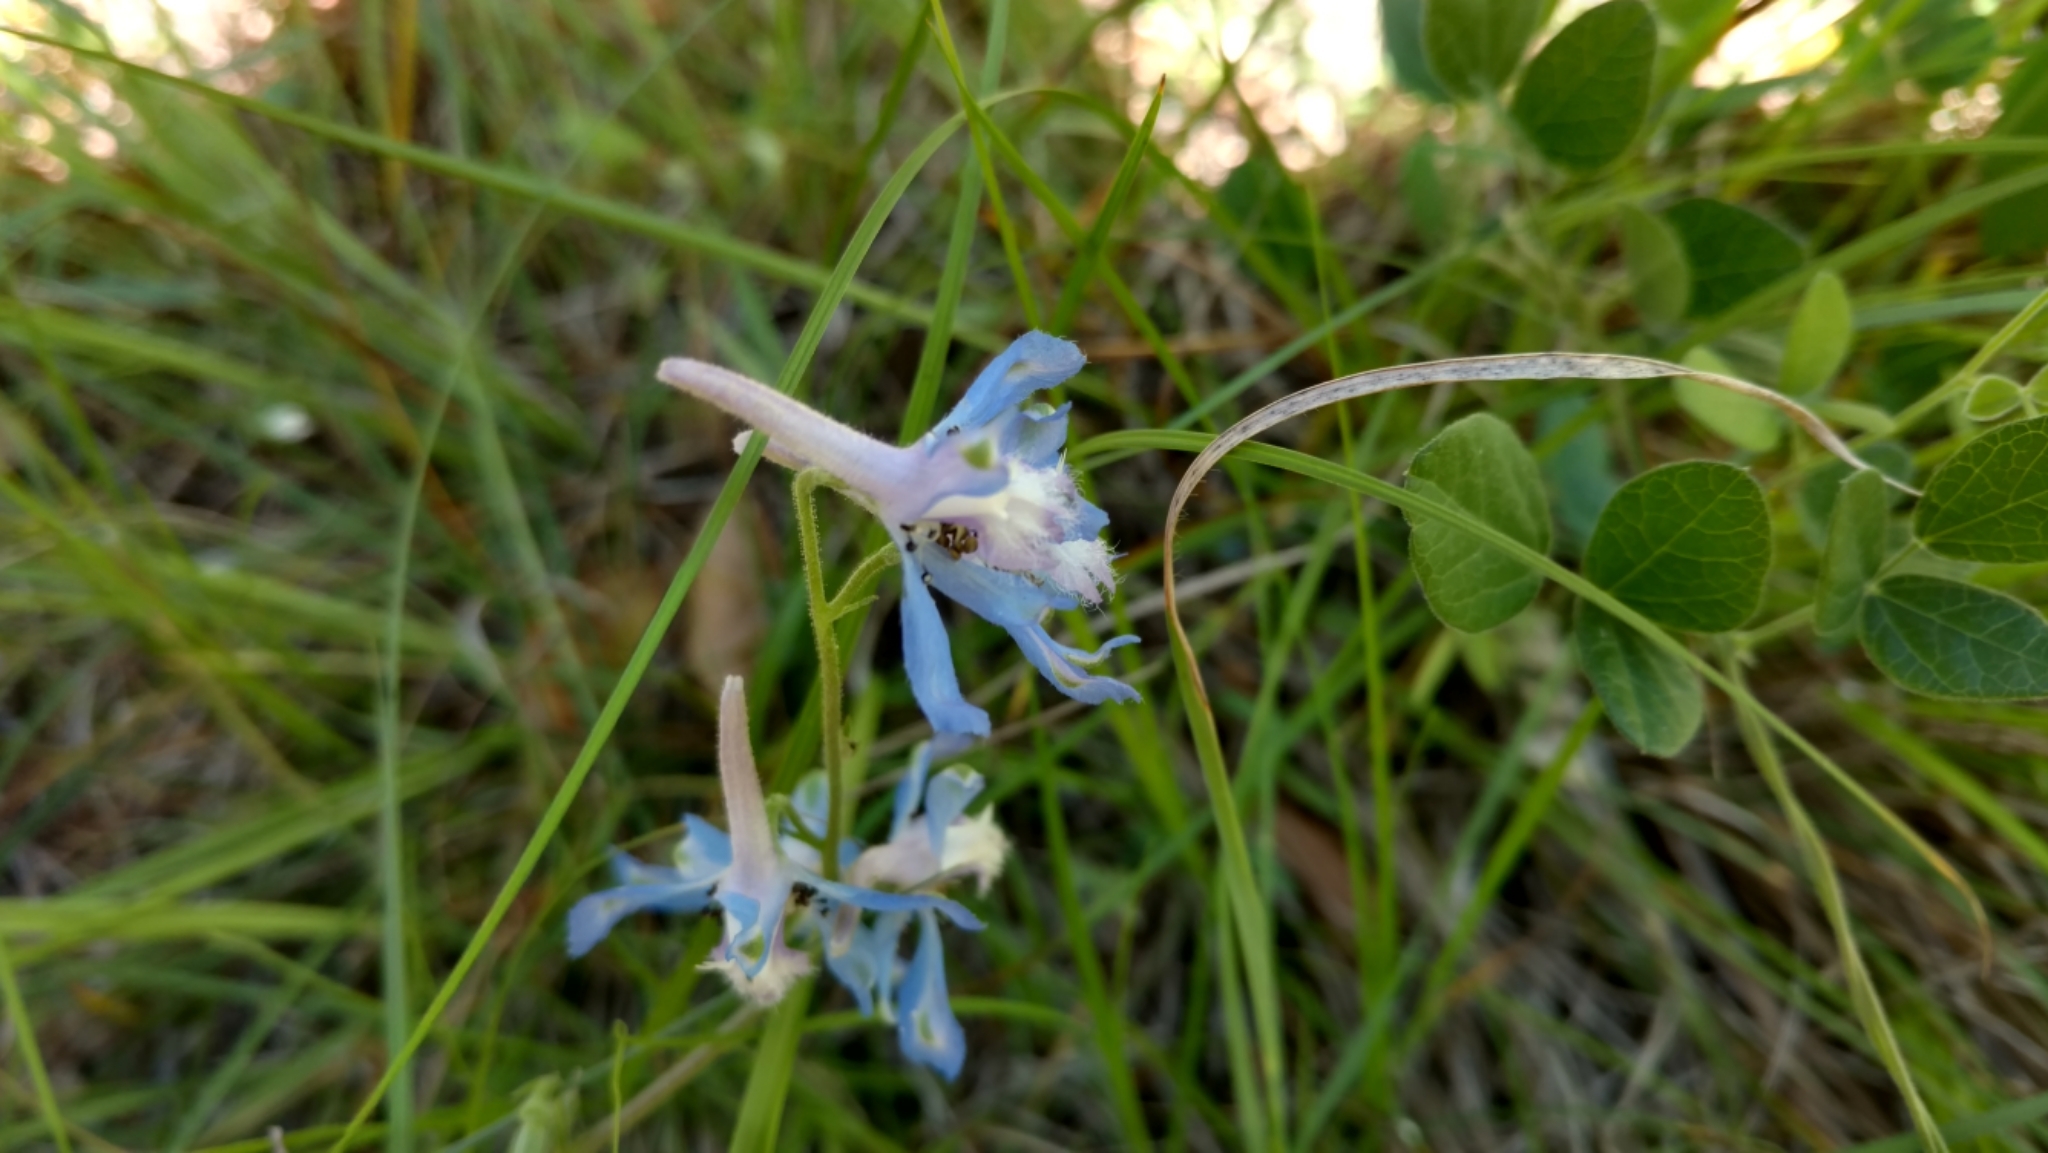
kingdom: Plantae
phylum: Tracheophyta
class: Magnoliopsida
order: Ranunculales
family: Ranunculaceae
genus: Delphinium
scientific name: Delphinium carolinianum
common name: Carolina larkspur
